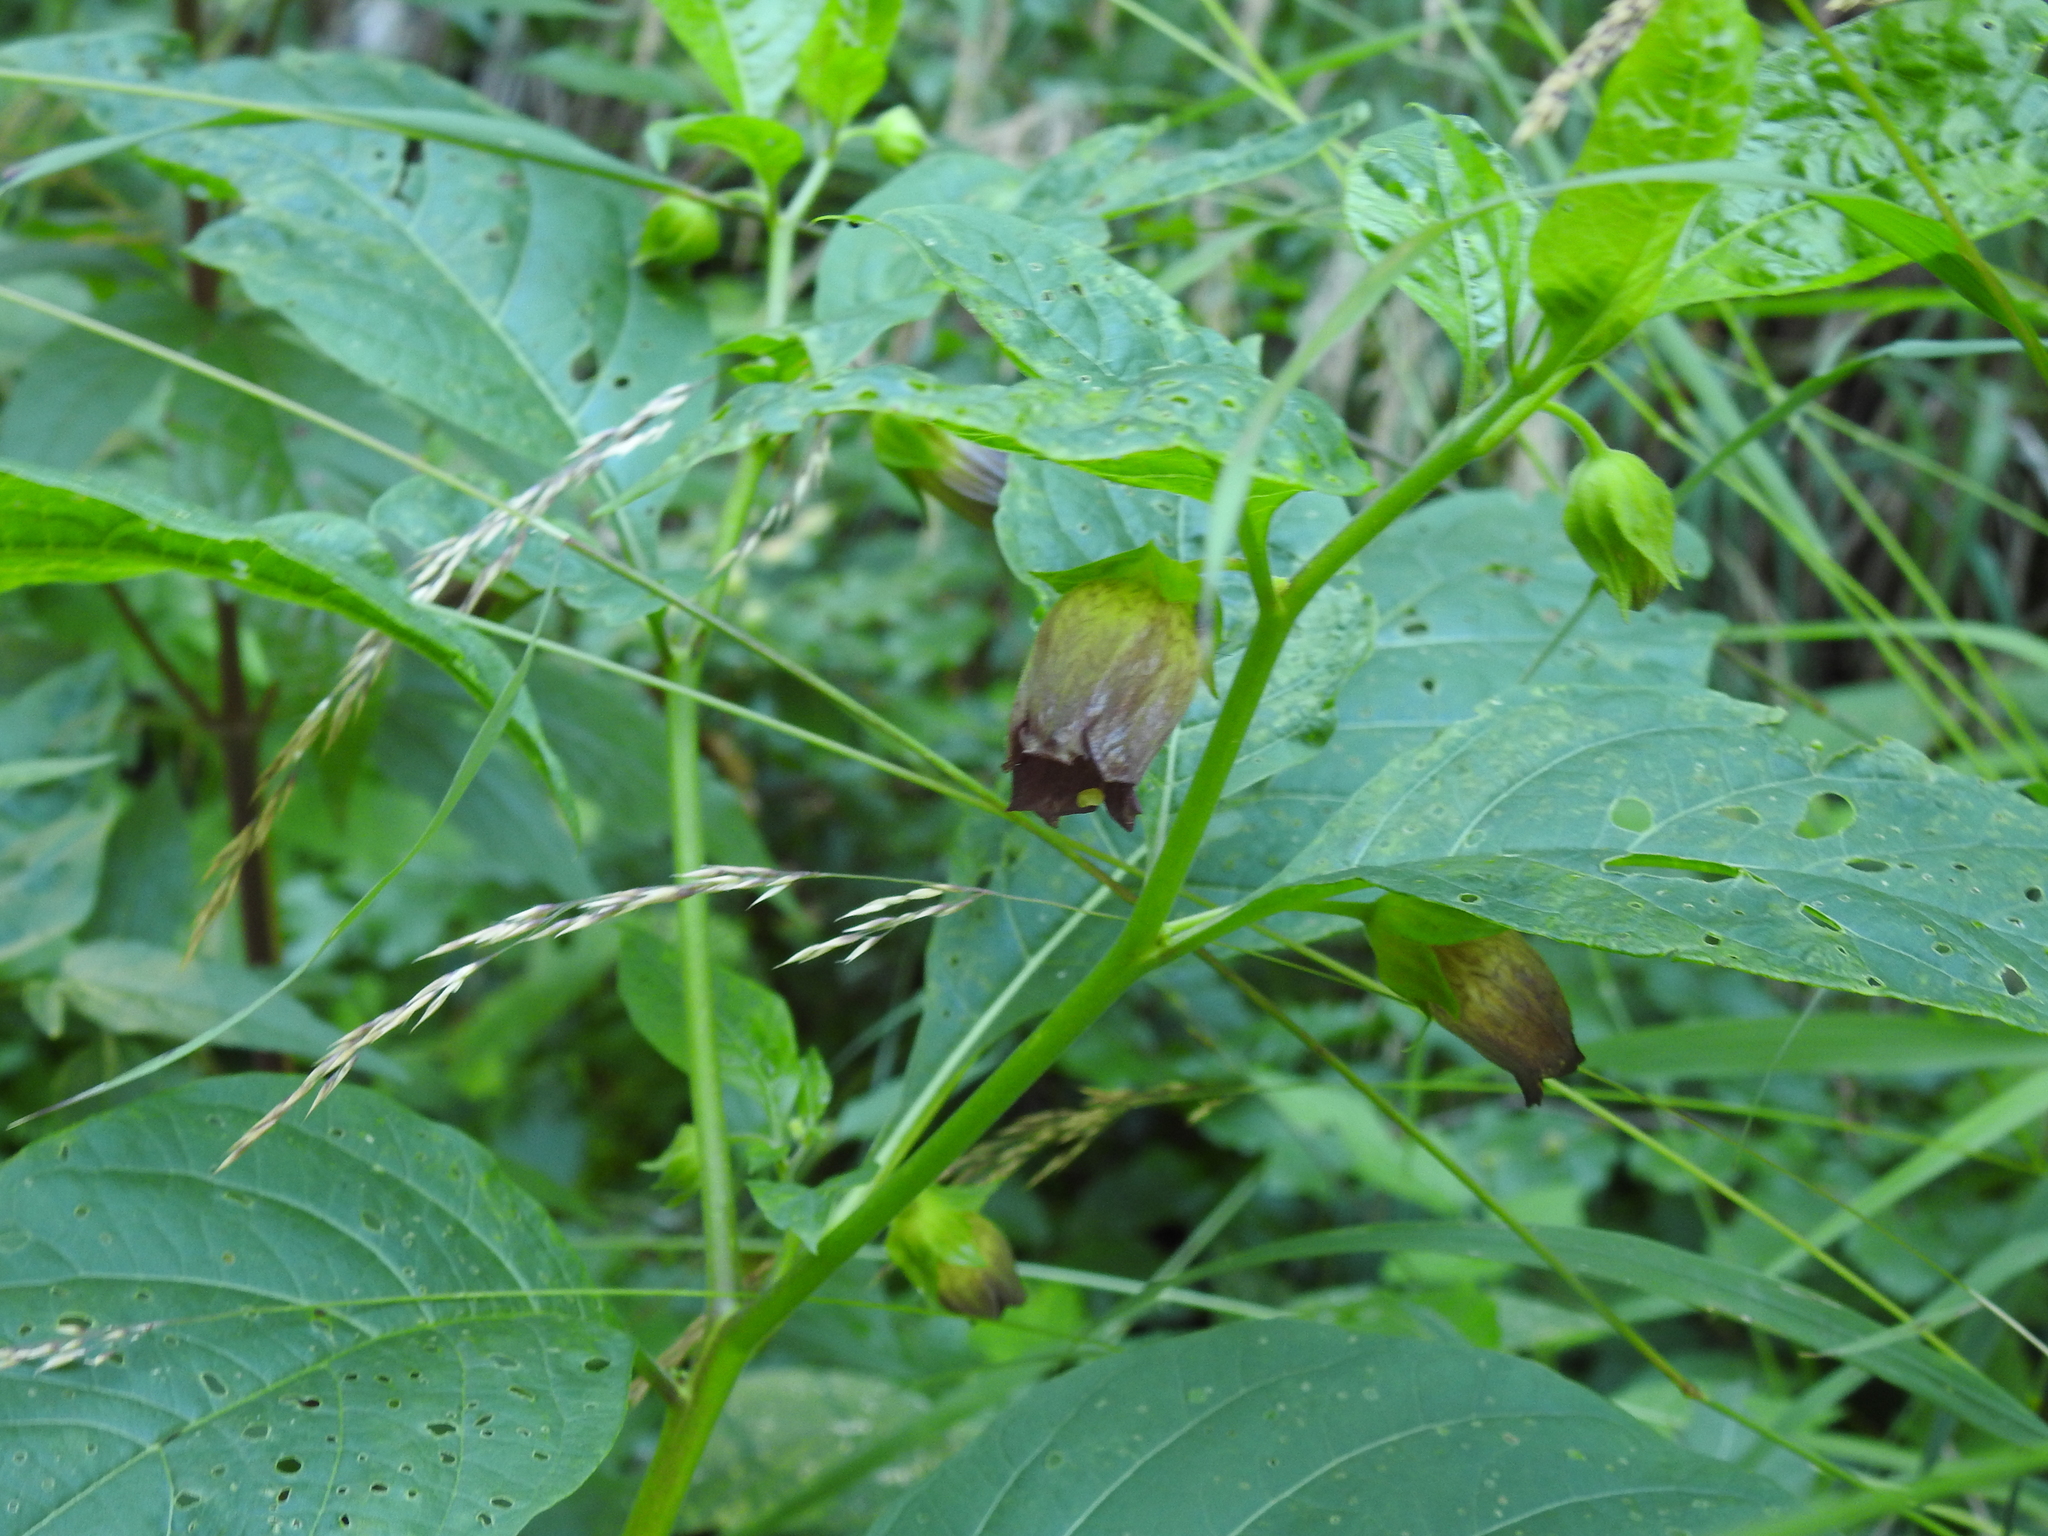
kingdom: Plantae
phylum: Tracheophyta
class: Magnoliopsida
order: Solanales
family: Solanaceae
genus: Atropa
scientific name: Atropa belladonna
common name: Deadly nightshade
